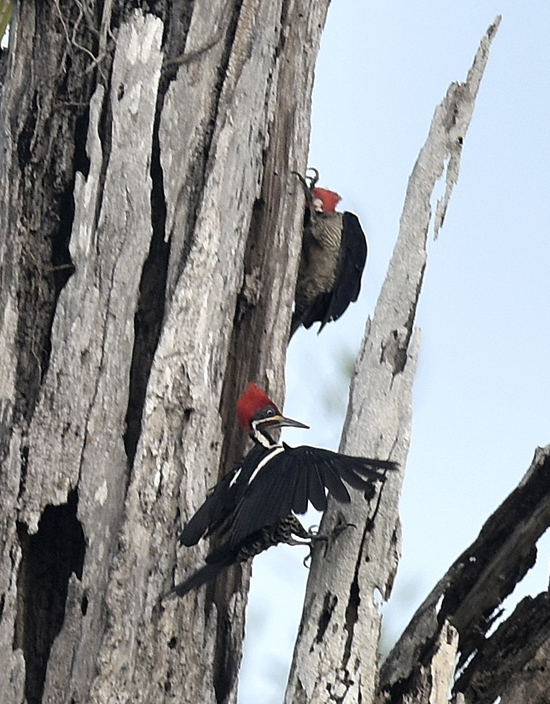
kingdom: Animalia
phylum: Chordata
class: Aves
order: Piciformes
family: Picidae
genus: Campephilus
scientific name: Campephilus melanoleucos
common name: Crimson-crested woodpecker
